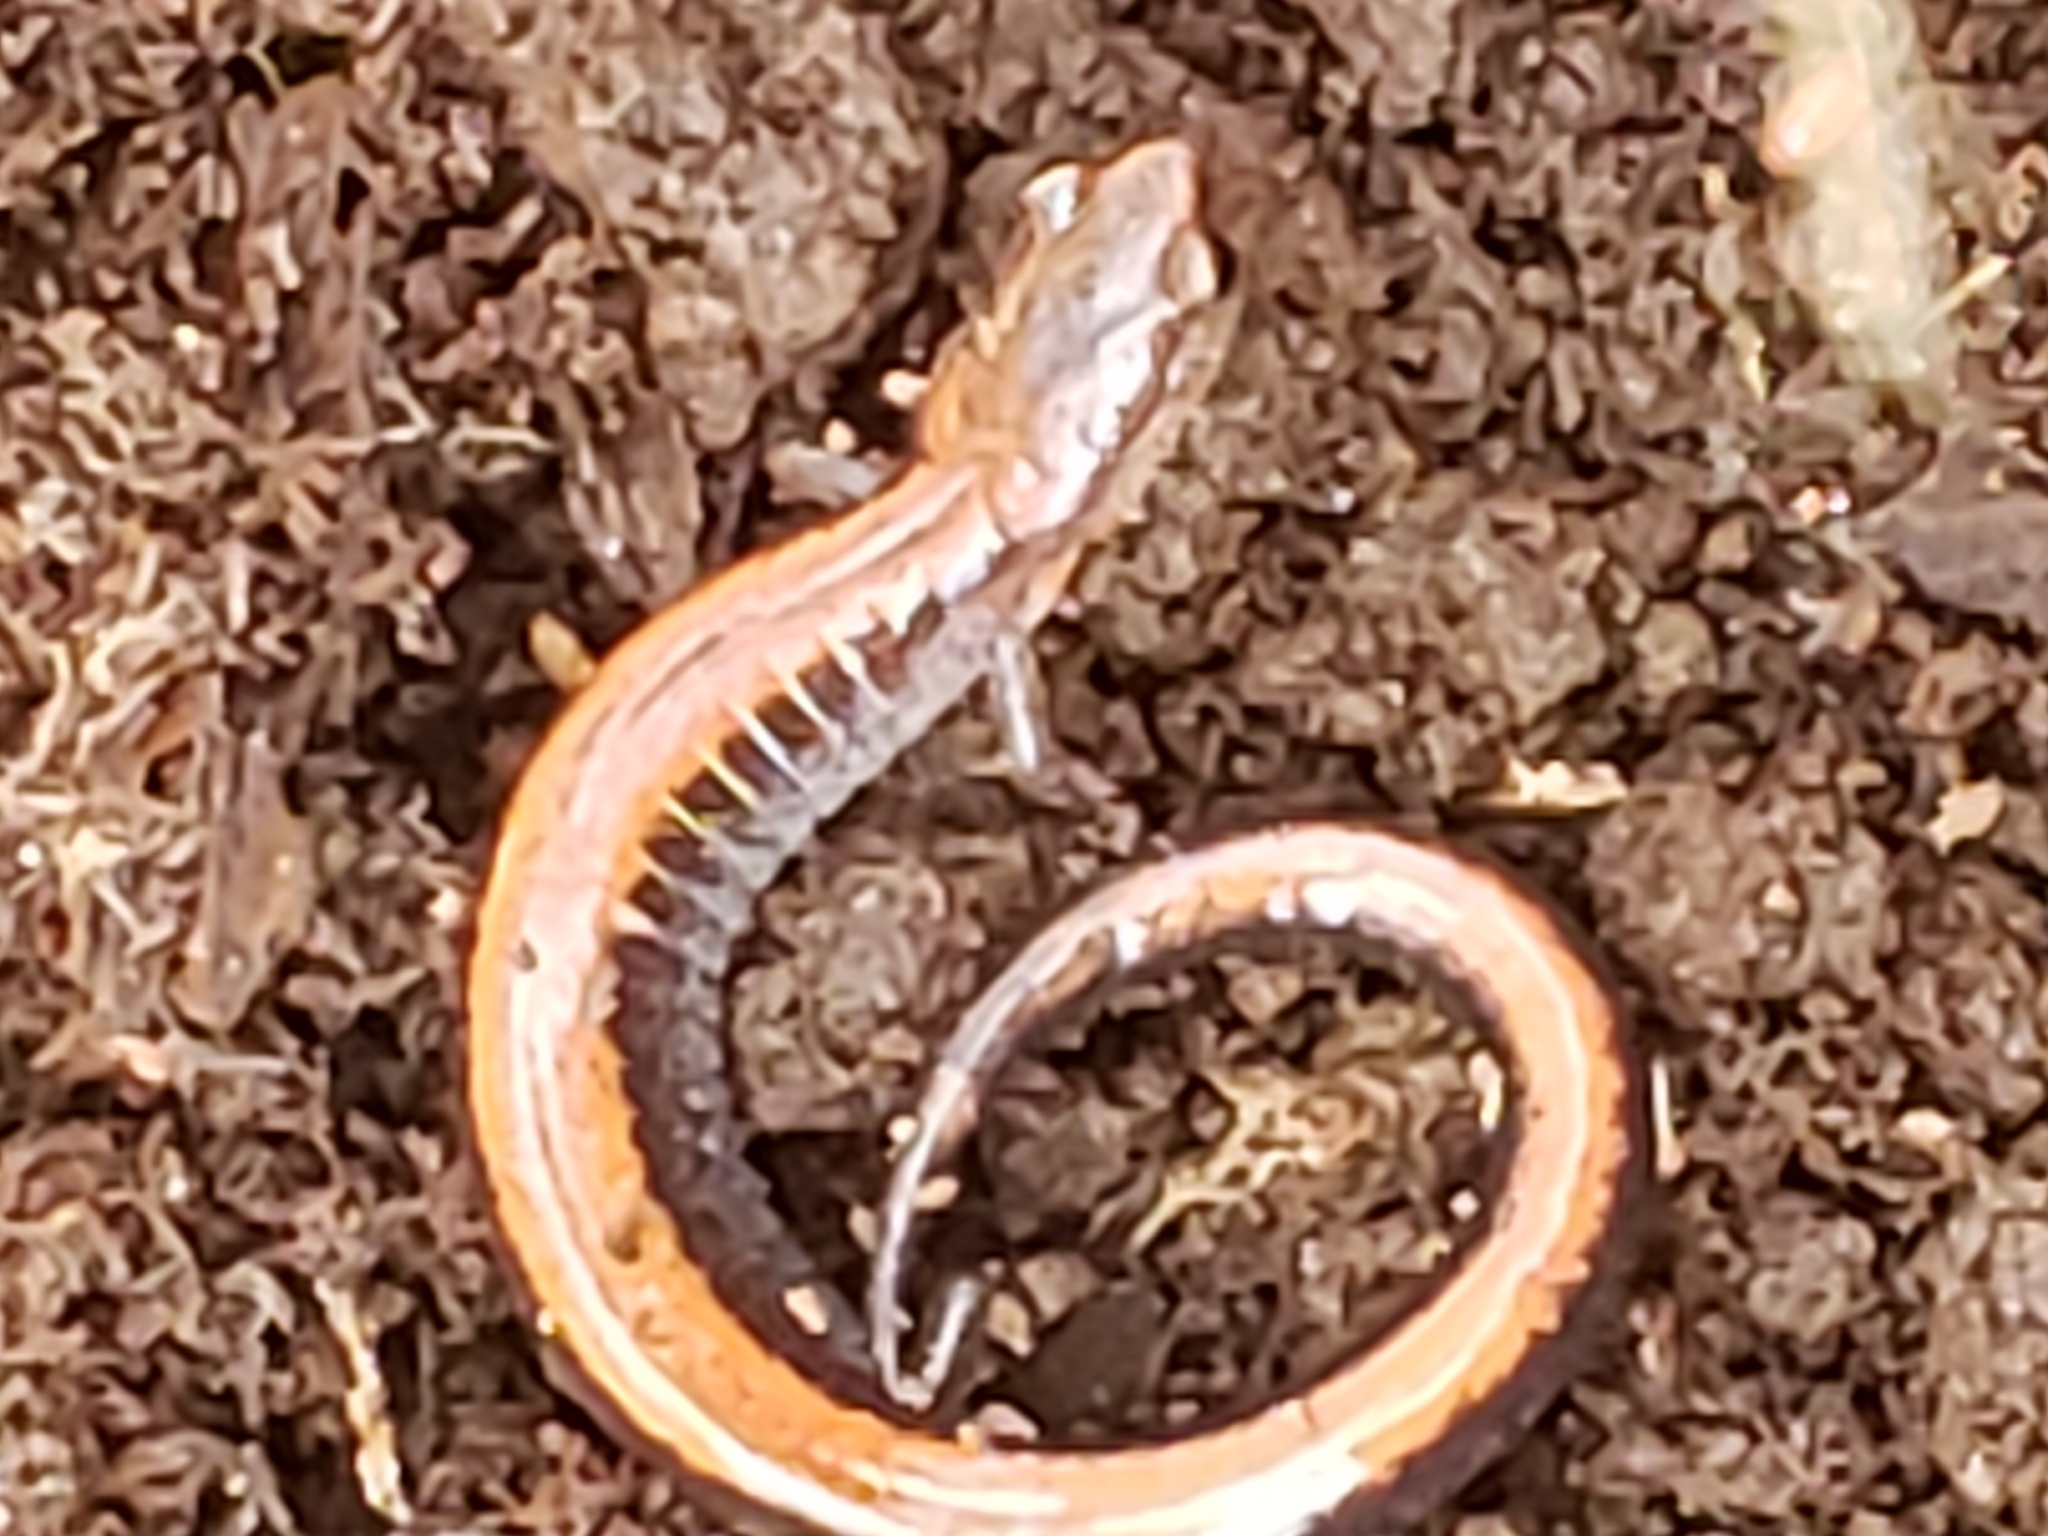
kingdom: Animalia
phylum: Chordata
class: Amphibia
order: Caudata
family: Plethodontidae
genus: Plethodon
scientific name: Plethodon cinereus
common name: Redback salamander
